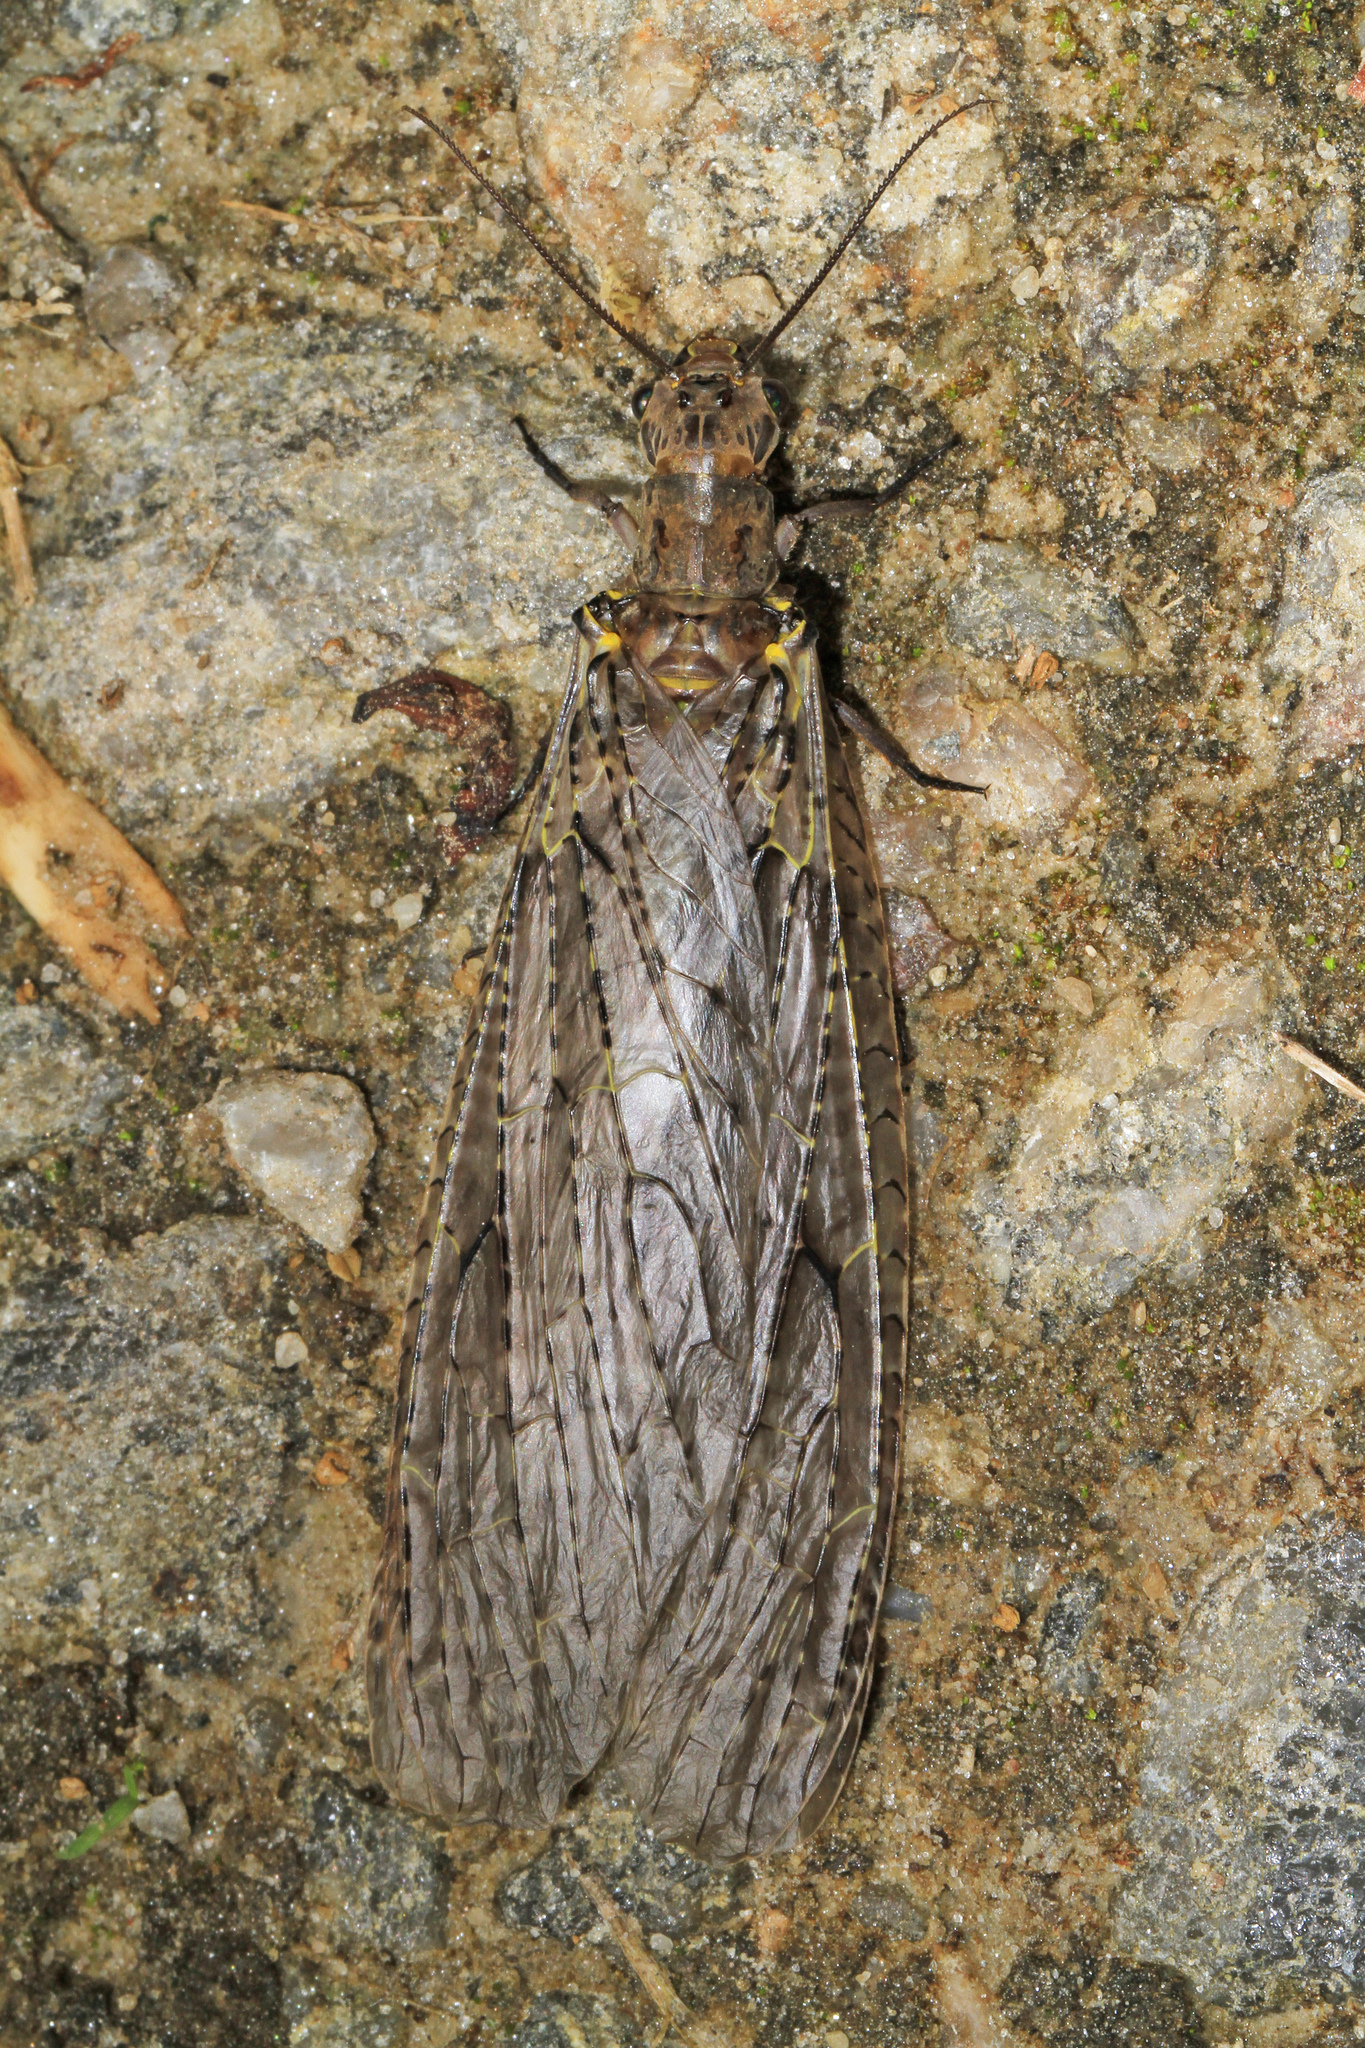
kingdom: Animalia
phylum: Arthropoda
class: Insecta
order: Megaloptera
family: Corydalidae
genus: Chauliodes
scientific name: Chauliodes rastricornis
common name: Spring fishfly
